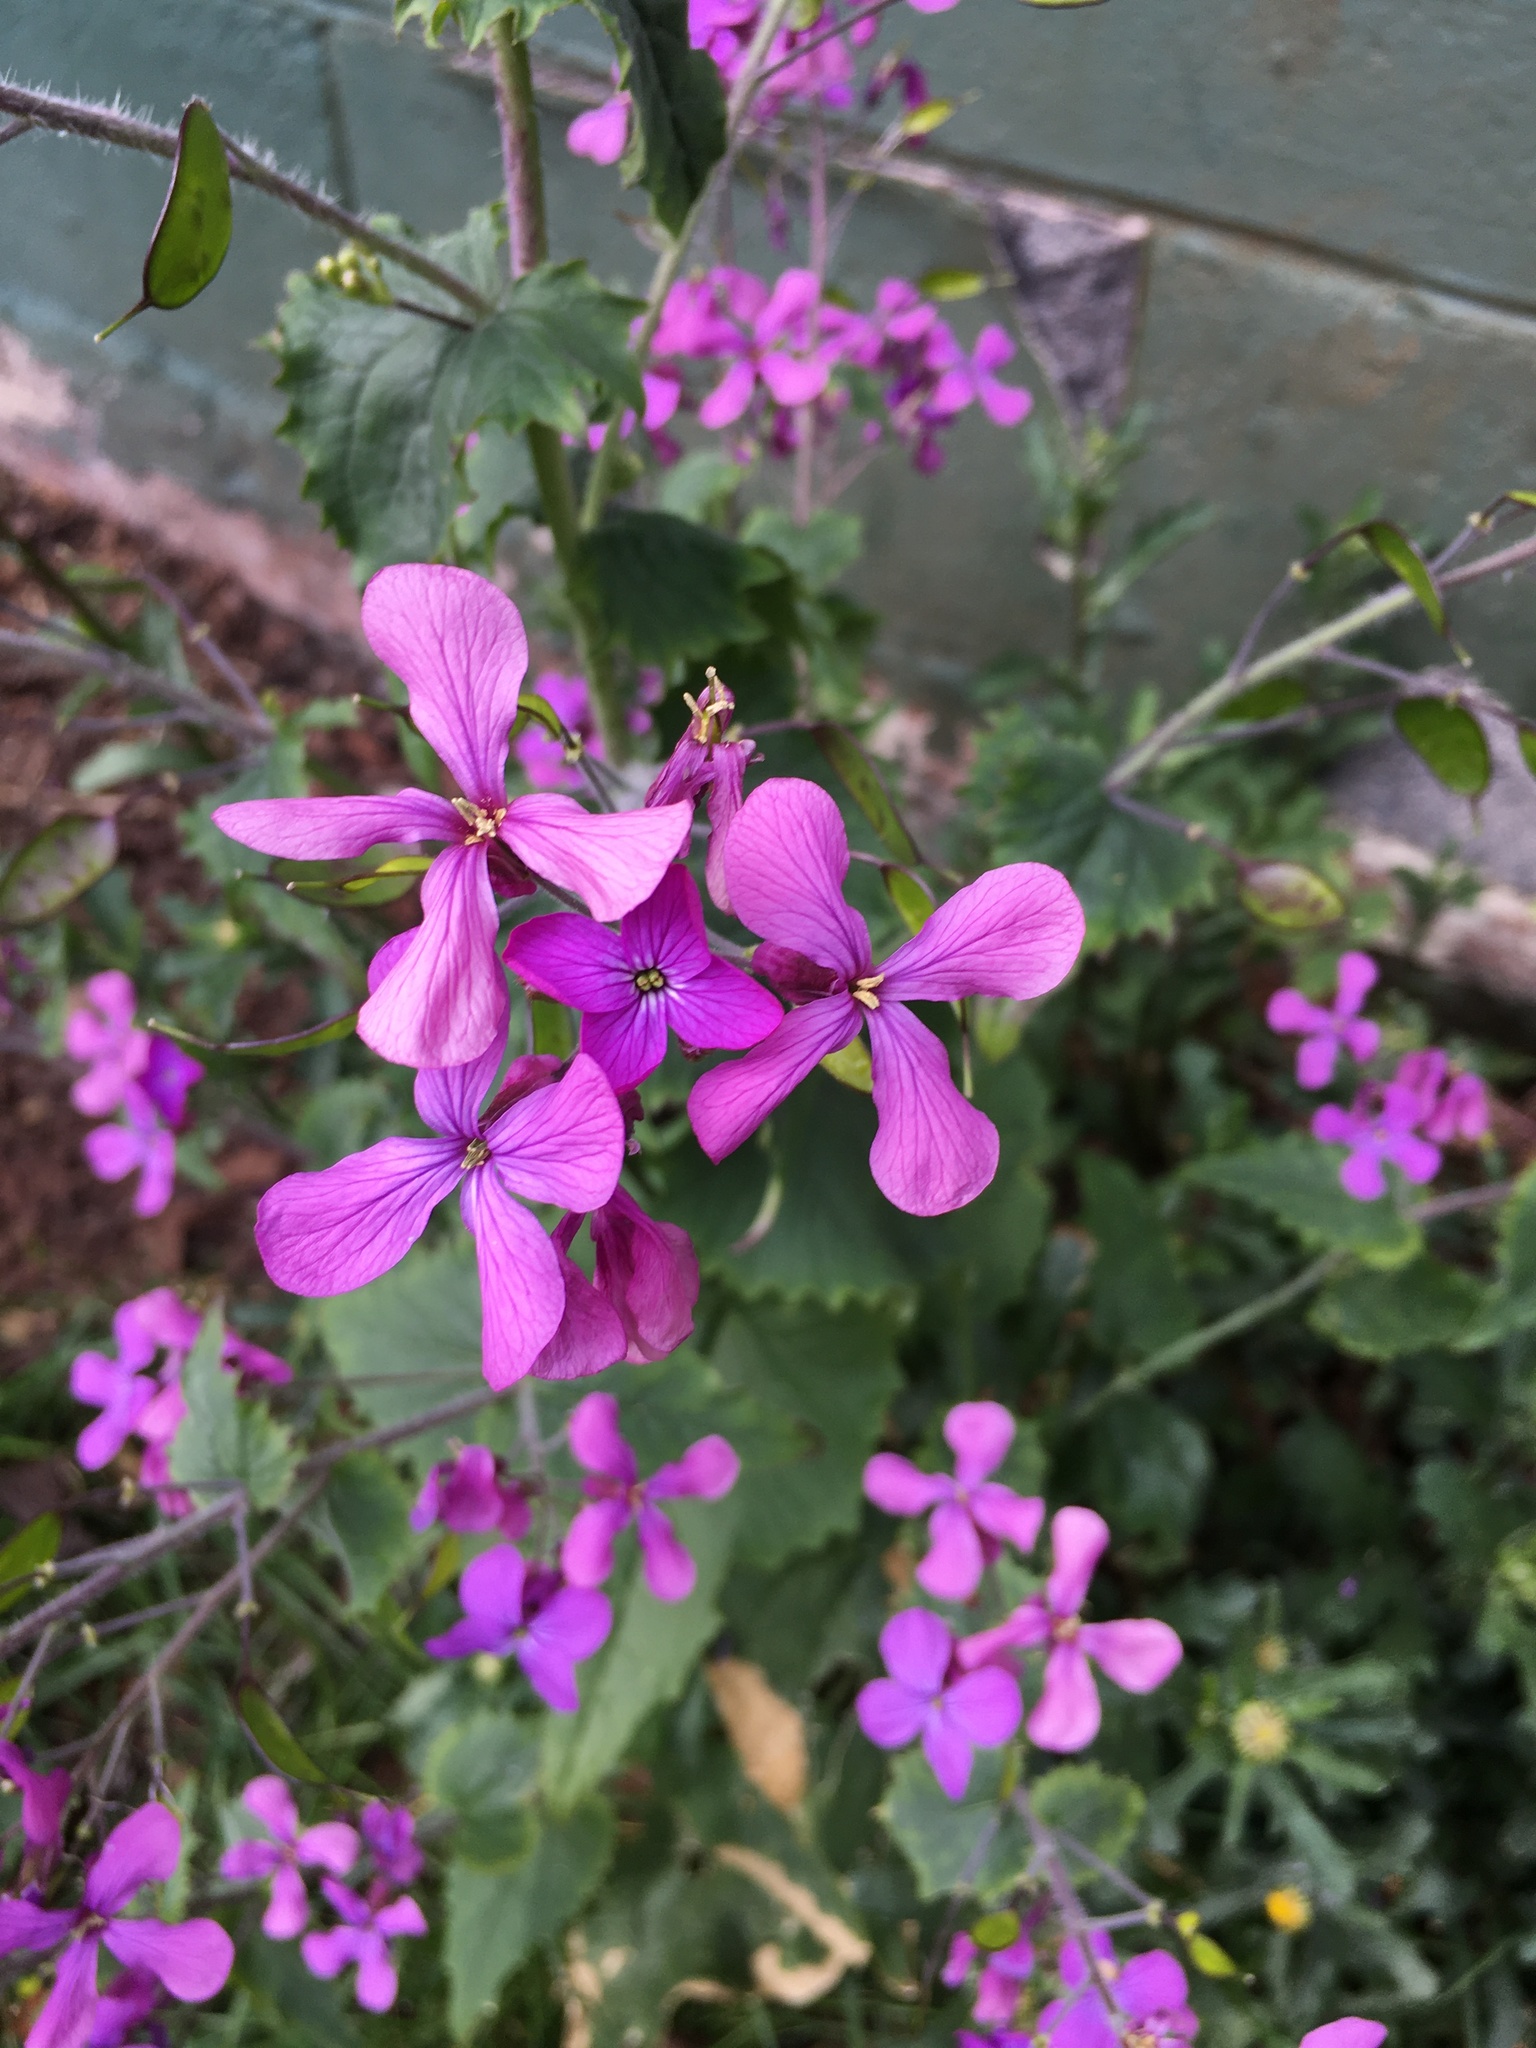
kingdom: Plantae
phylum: Tracheophyta
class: Magnoliopsida
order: Brassicales
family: Brassicaceae
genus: Lunaria
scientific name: Lunaria annua
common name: Honesty
